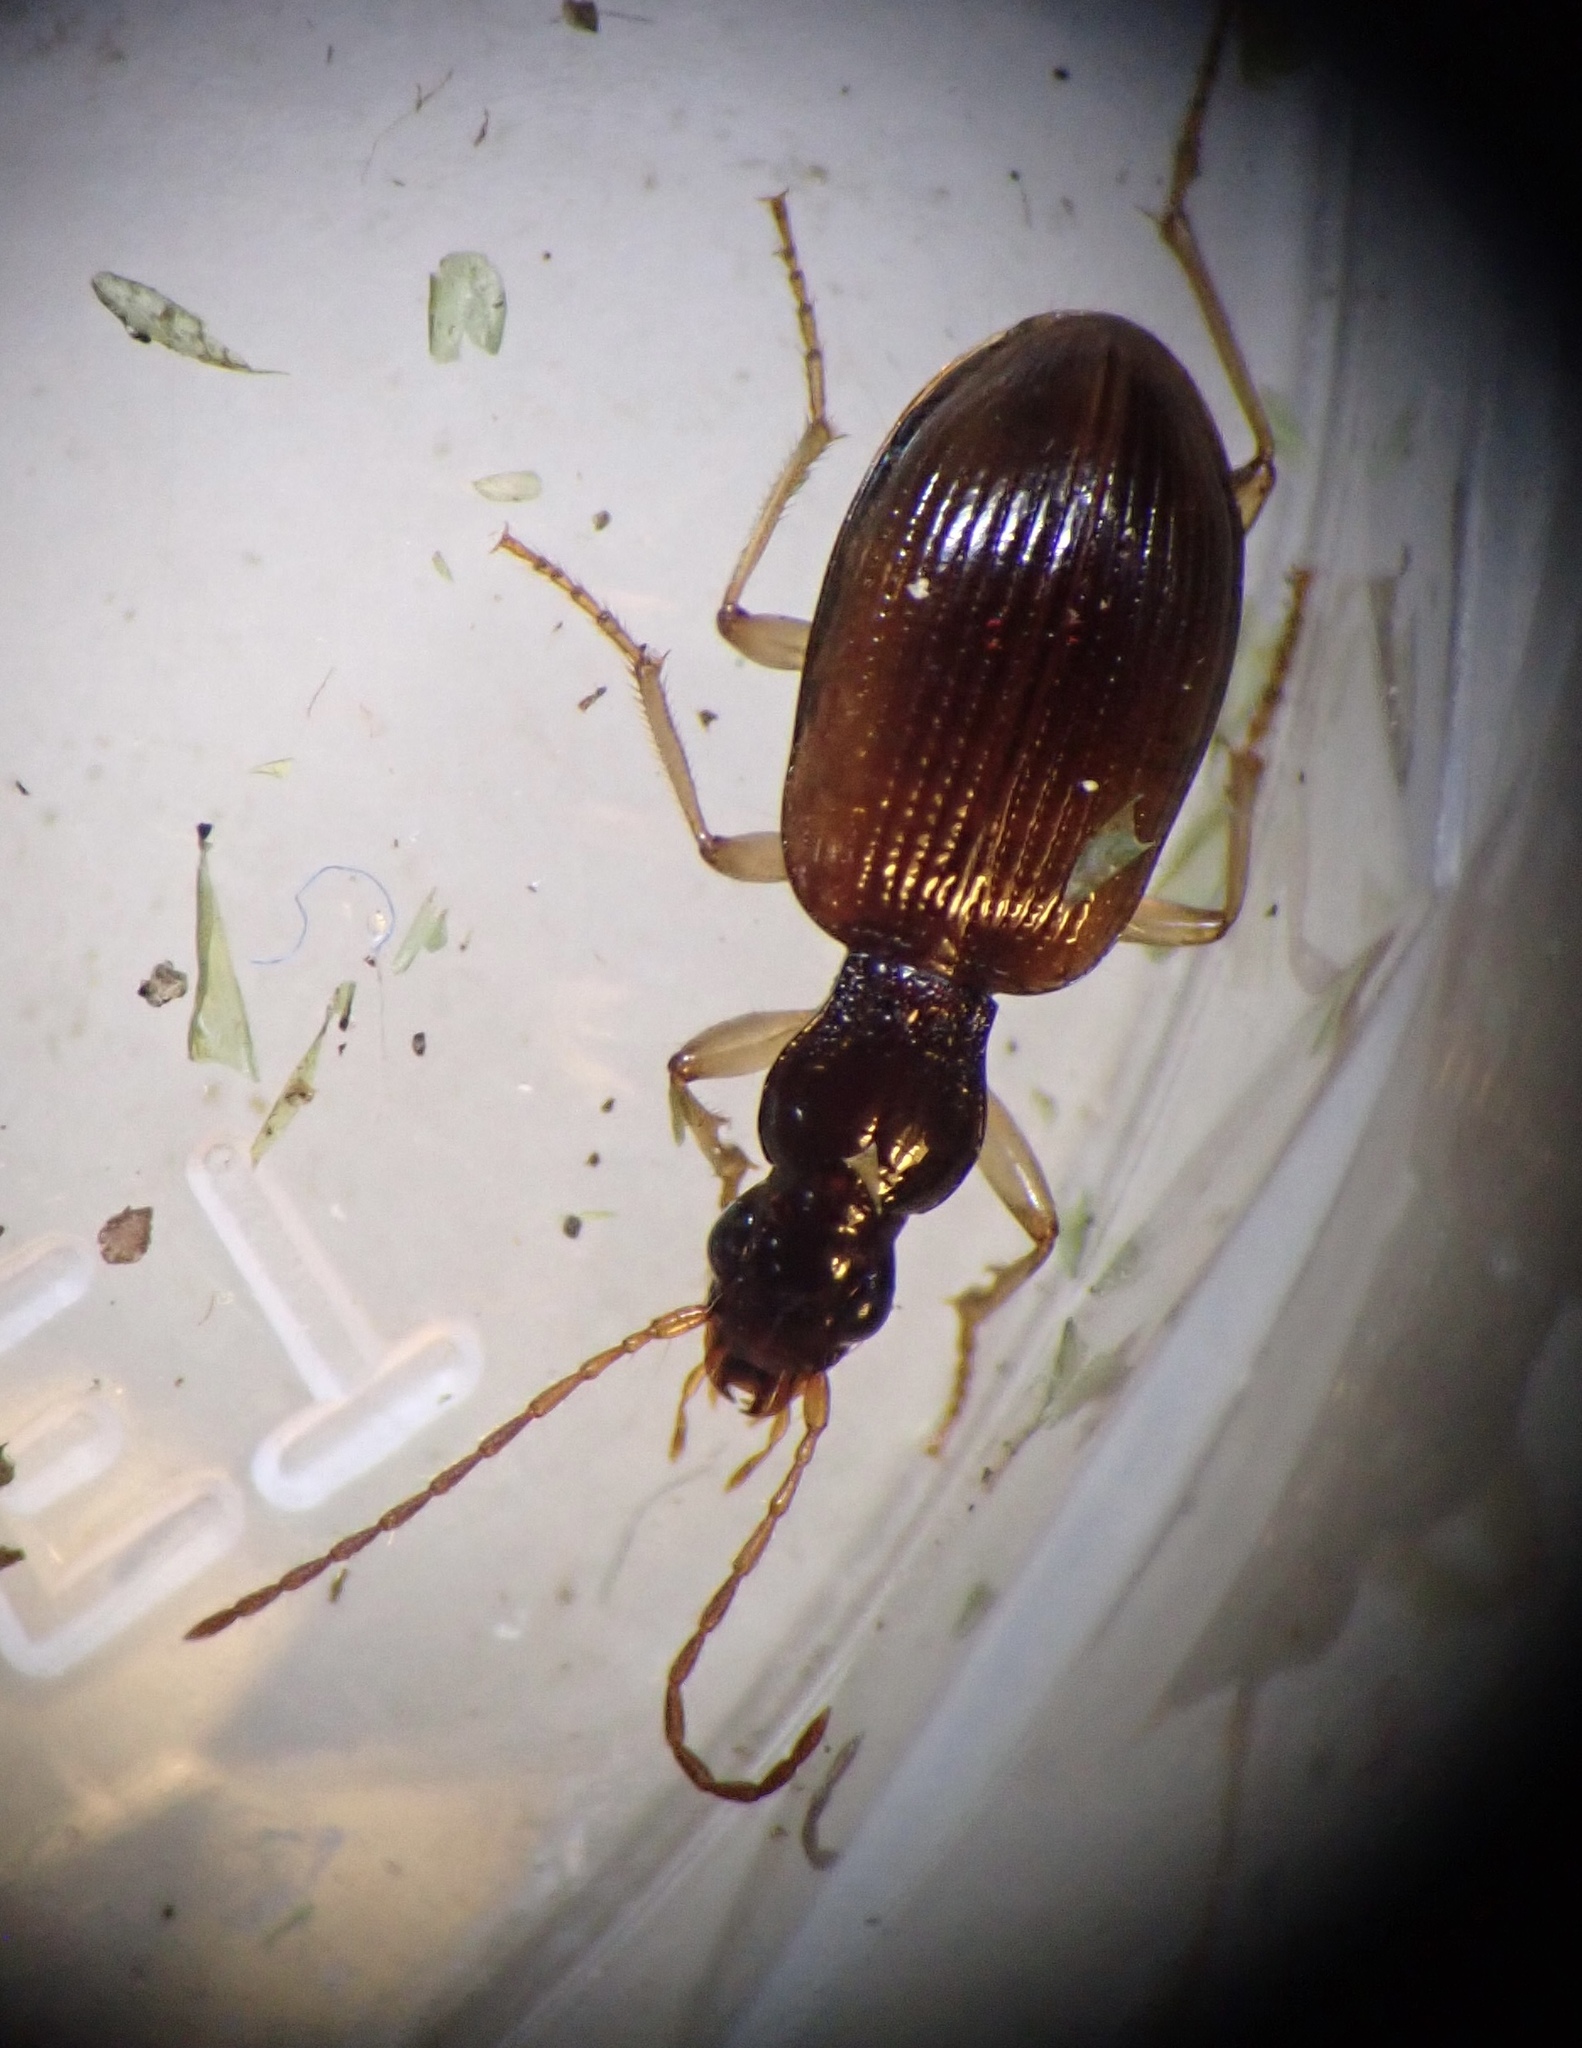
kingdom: Animalia
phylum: Arthropoda
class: Insecta
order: Coleoptera
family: Carabidae
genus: Oxypselaphus
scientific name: Oxypselaphus obscurus
